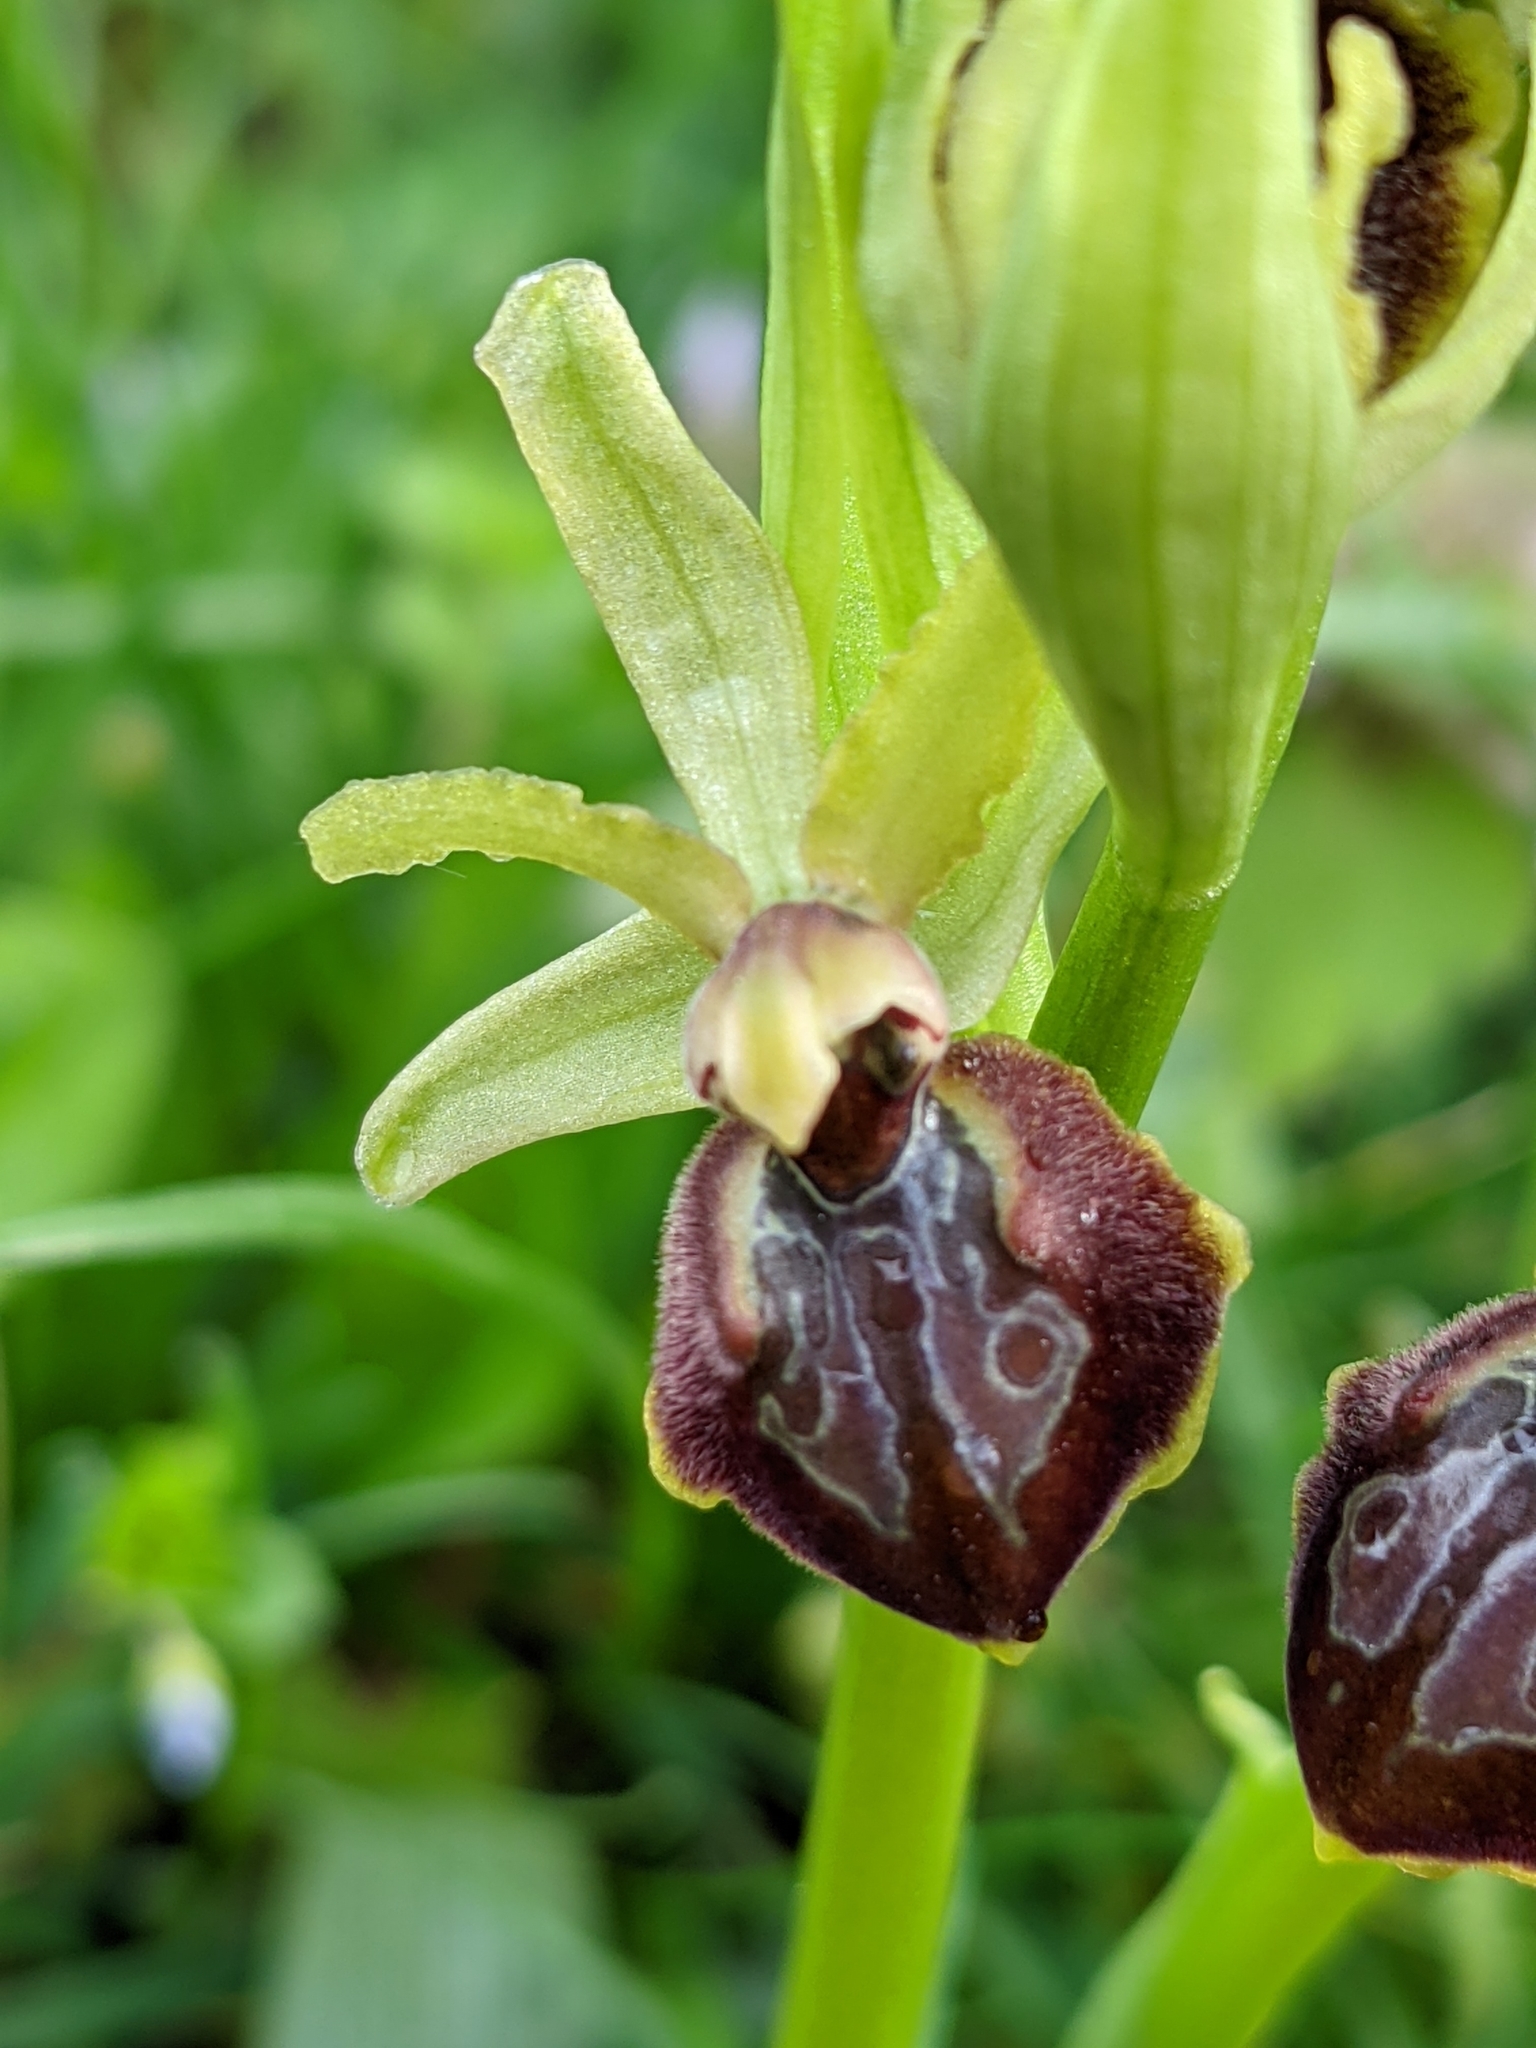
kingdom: Plantae
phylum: Tracheophyta
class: Liliopsida
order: Asparagales
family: Orchidaceae
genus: Ophrys
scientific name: Ophrys arachnitiformis
